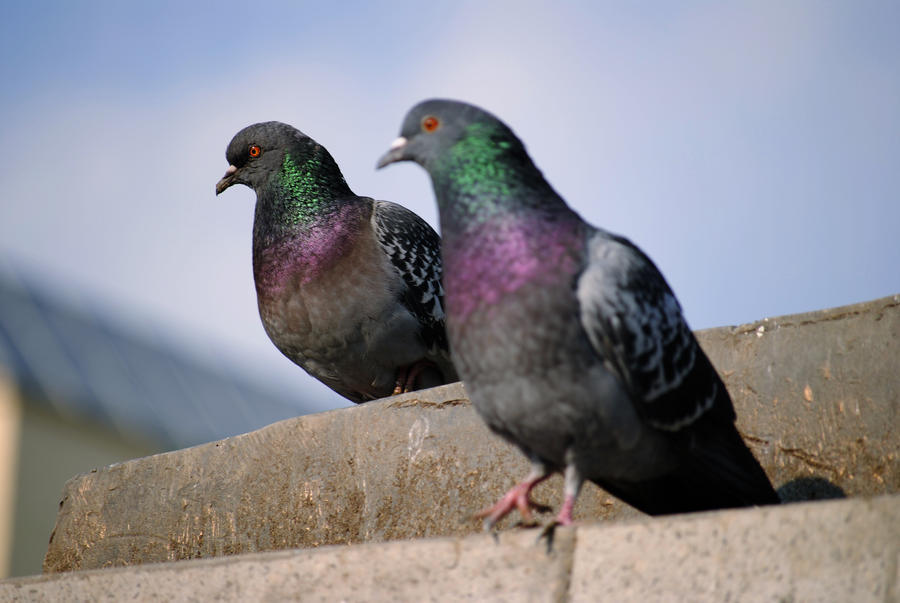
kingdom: Animalia
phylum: Chordata
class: Aves
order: Columbiformes
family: Columbidae
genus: Columba
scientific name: Columba livia
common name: Rock pigeon
